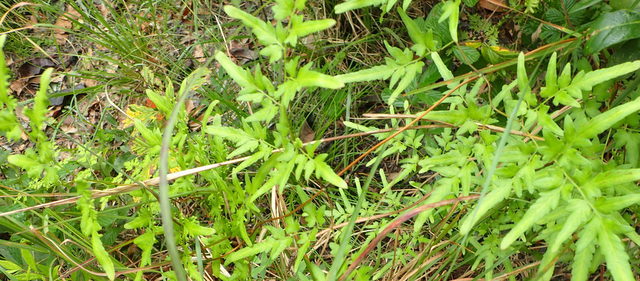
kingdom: Plantae
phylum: Tracheophyta
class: Polypodiopsida
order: Schizaeales
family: Lygodiaceae
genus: Lygodium
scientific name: Lygodium japonicum
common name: Japanese climbing fern
